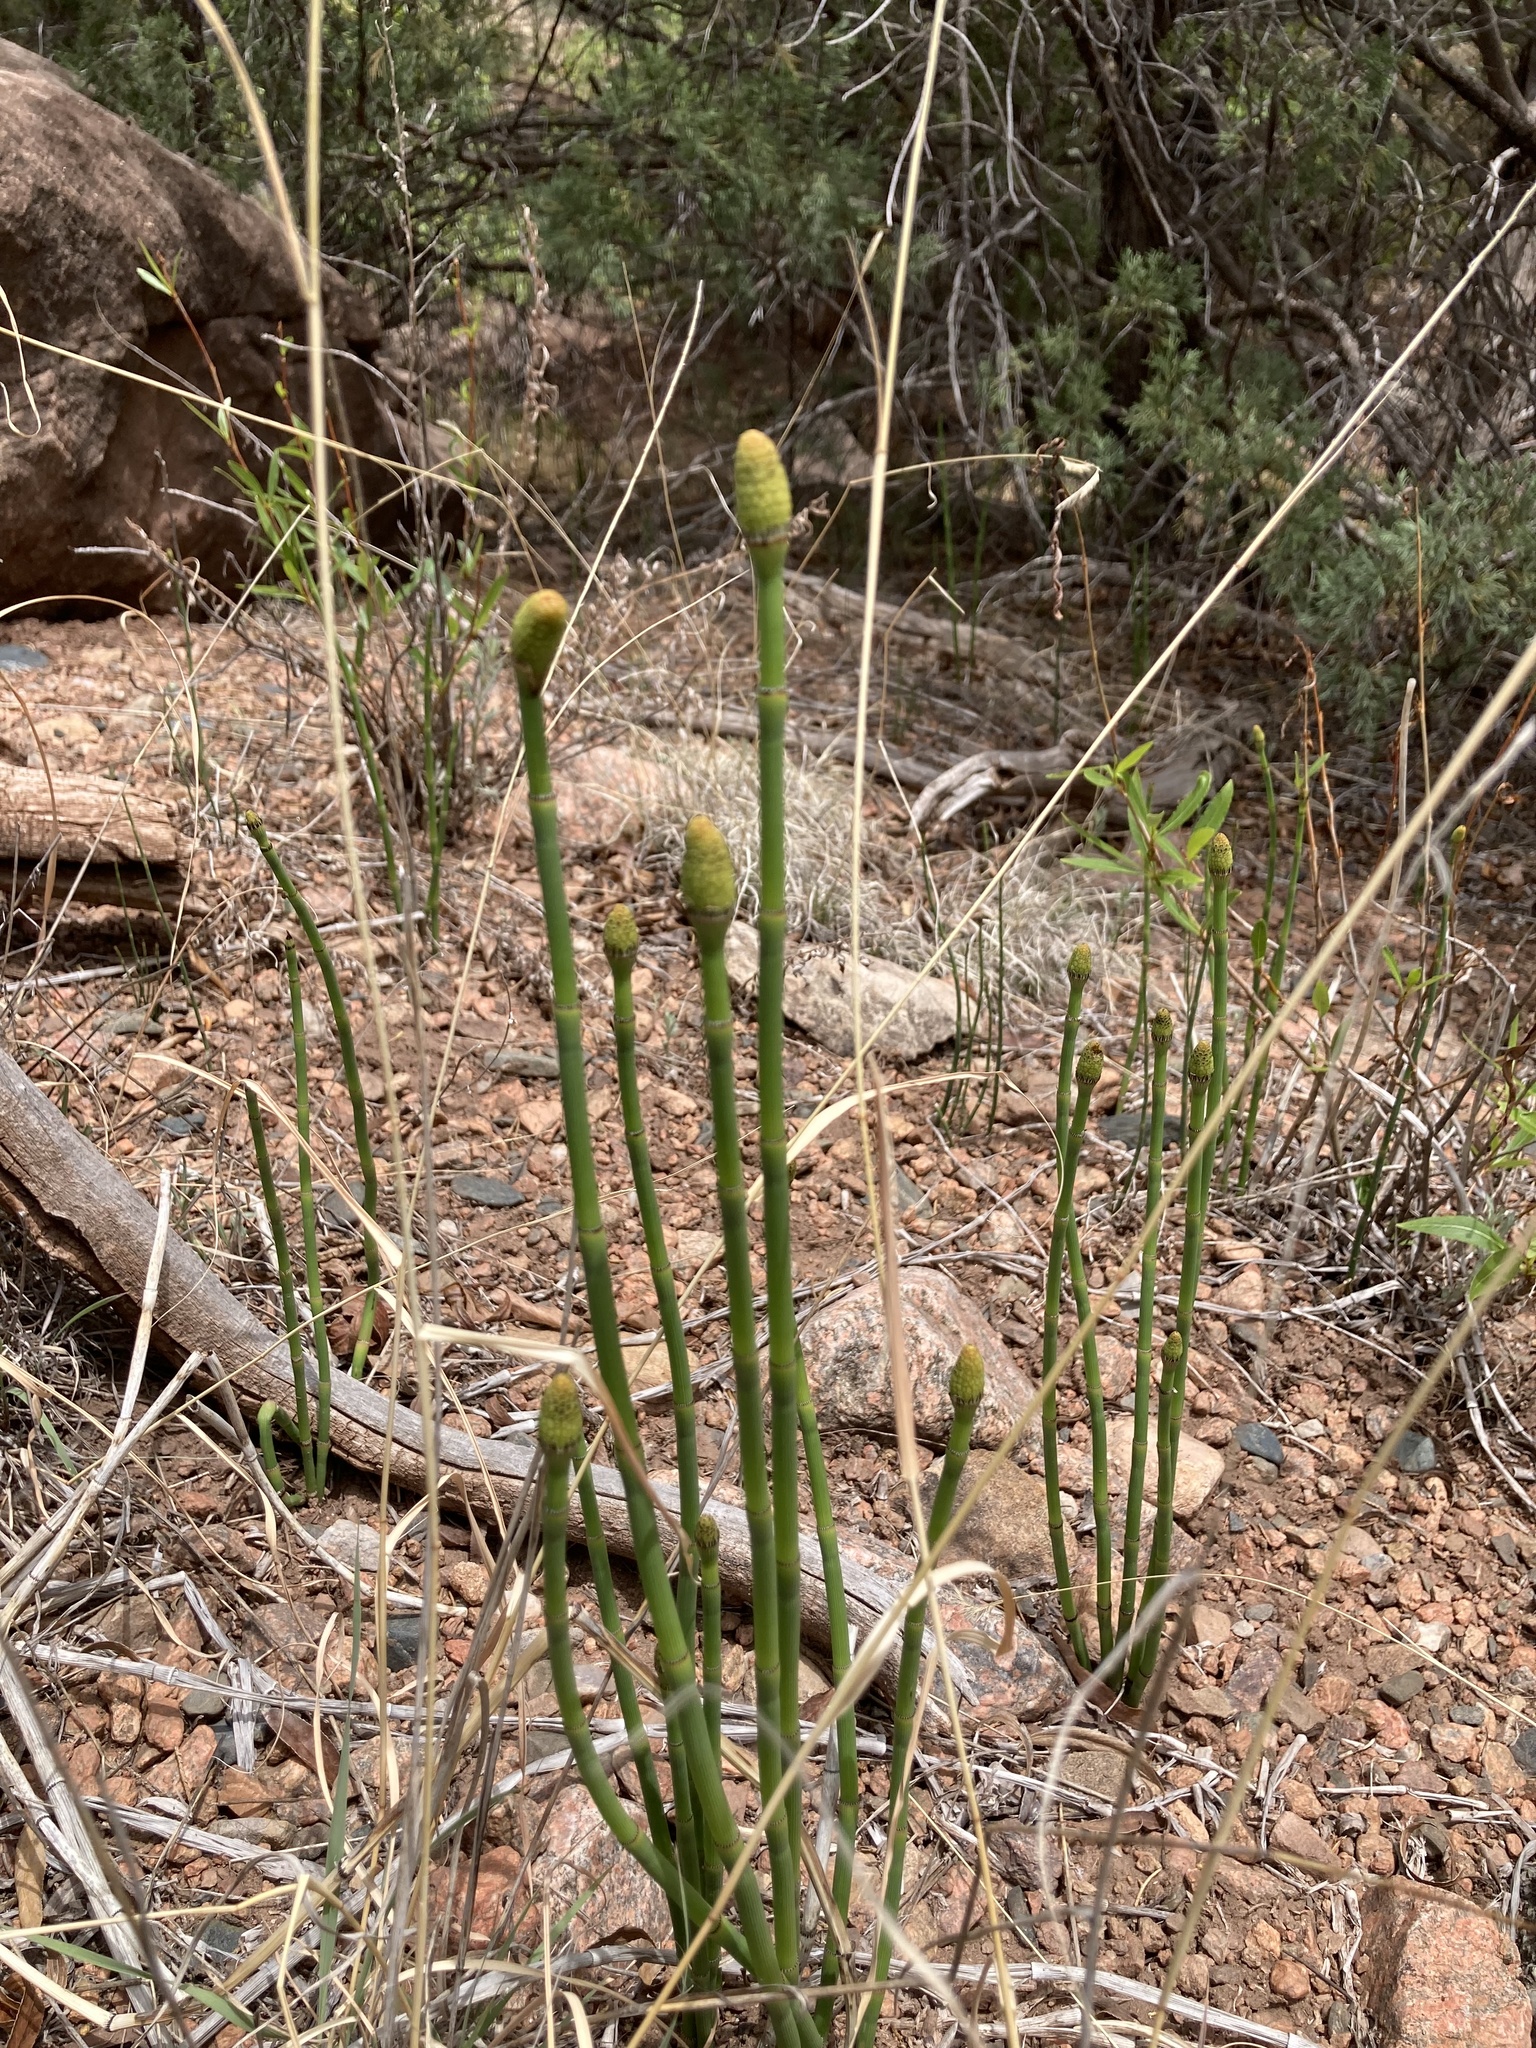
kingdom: Plantae
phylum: Tracheophyta
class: Polypodiopsida
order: Equisetales
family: Equisetaceae
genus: Equisetum
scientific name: Equisetum laevigatum
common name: Smooth scouring-rush
